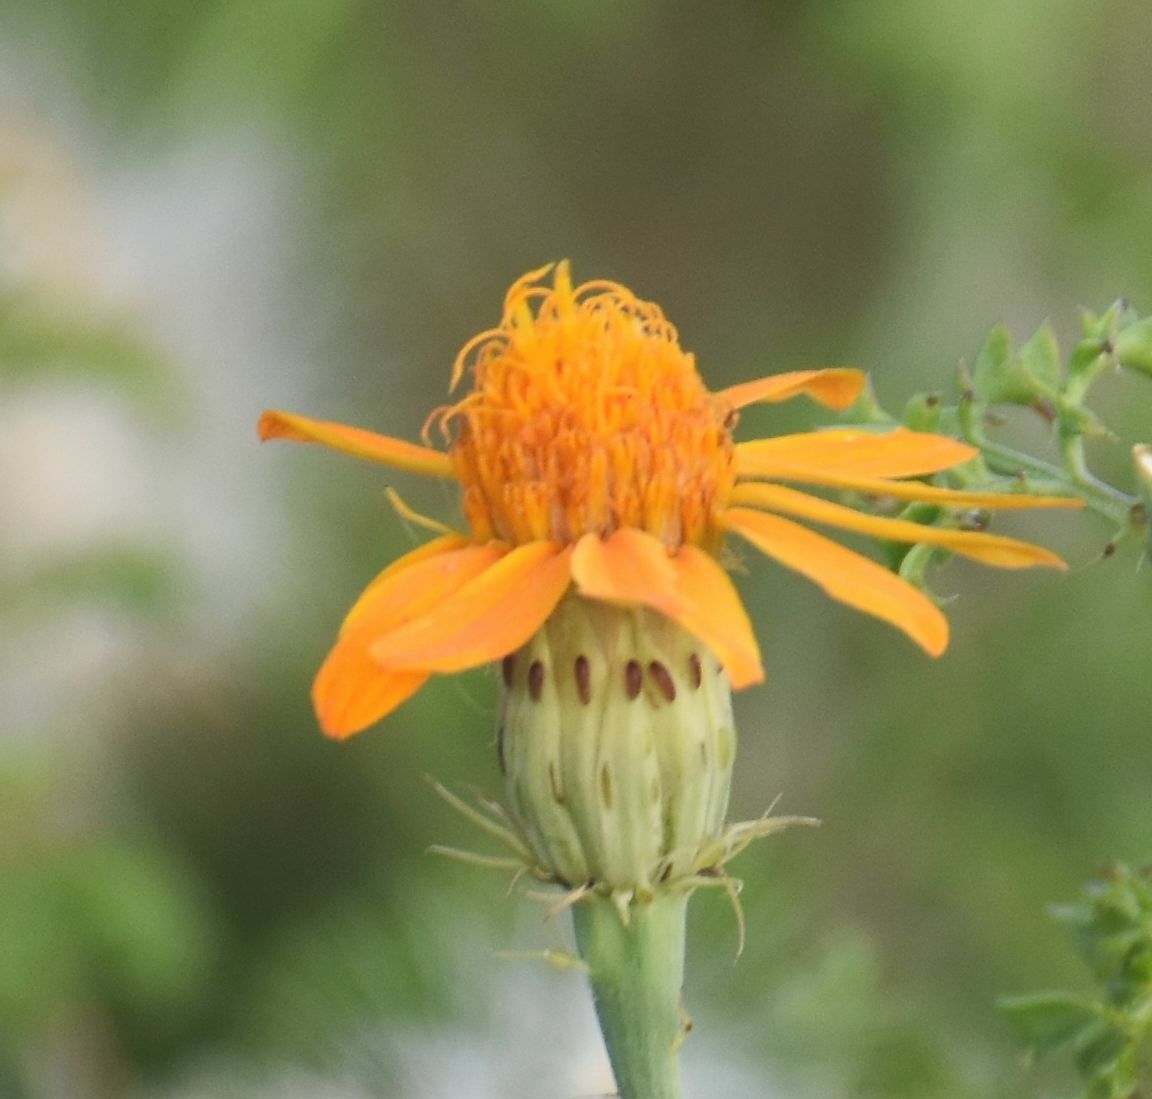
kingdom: Plantae
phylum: Tracheophyta
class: Magnoliopsida
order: Asterales
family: Asteraceae
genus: Adenophyllum
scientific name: Adenophyllum speciosum
